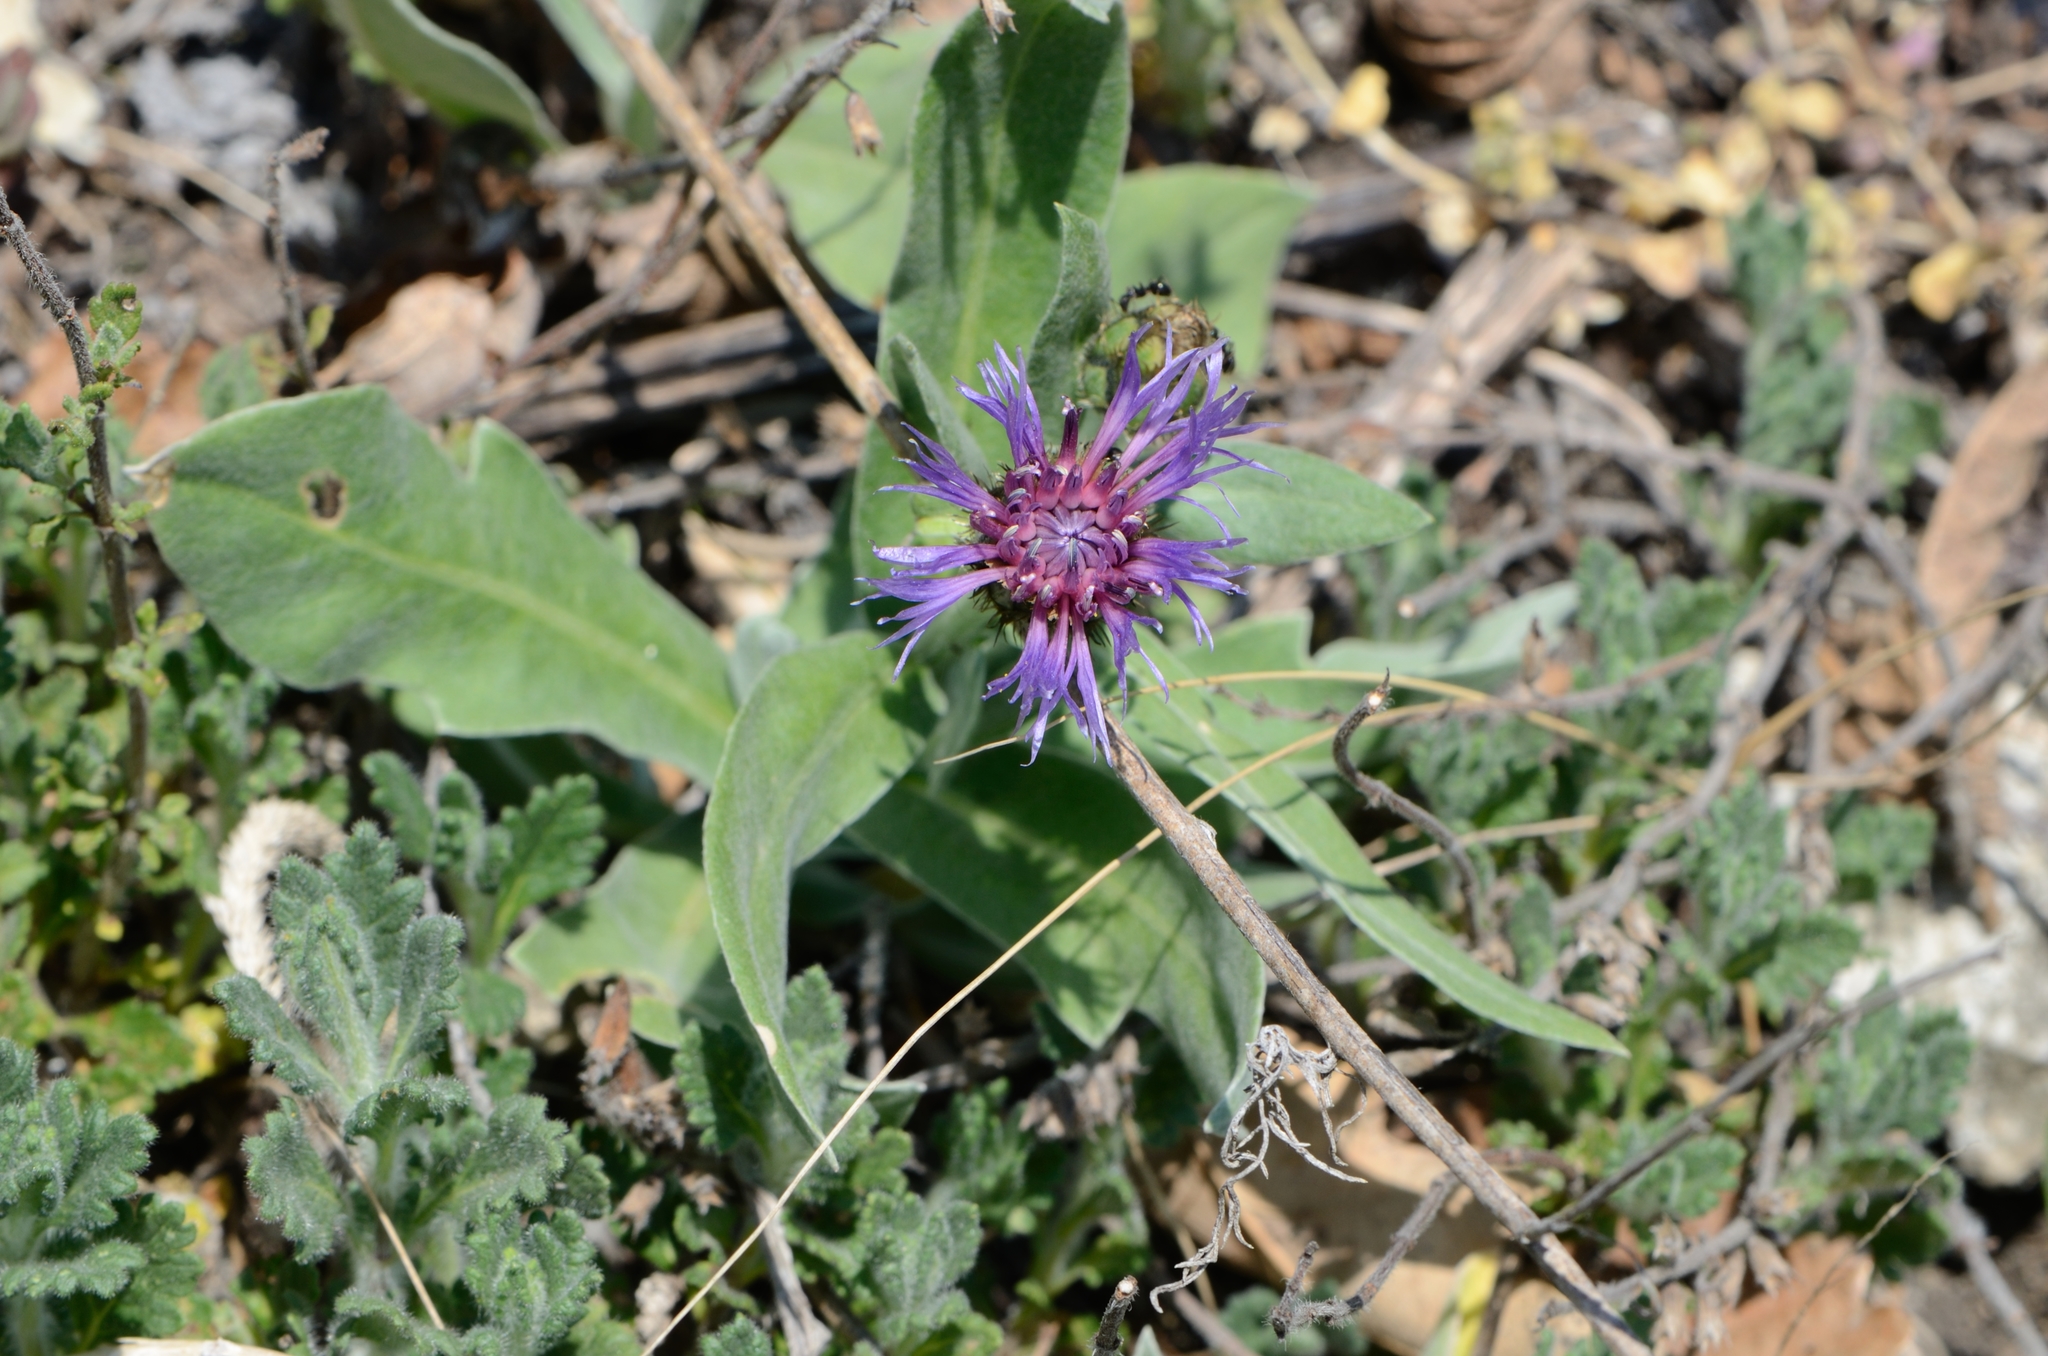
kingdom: Plantae
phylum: Tracheophyta
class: Magnoliopsida
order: Asterales
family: Asteraceae
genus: Centaurea
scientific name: Centaurea triumfettii
